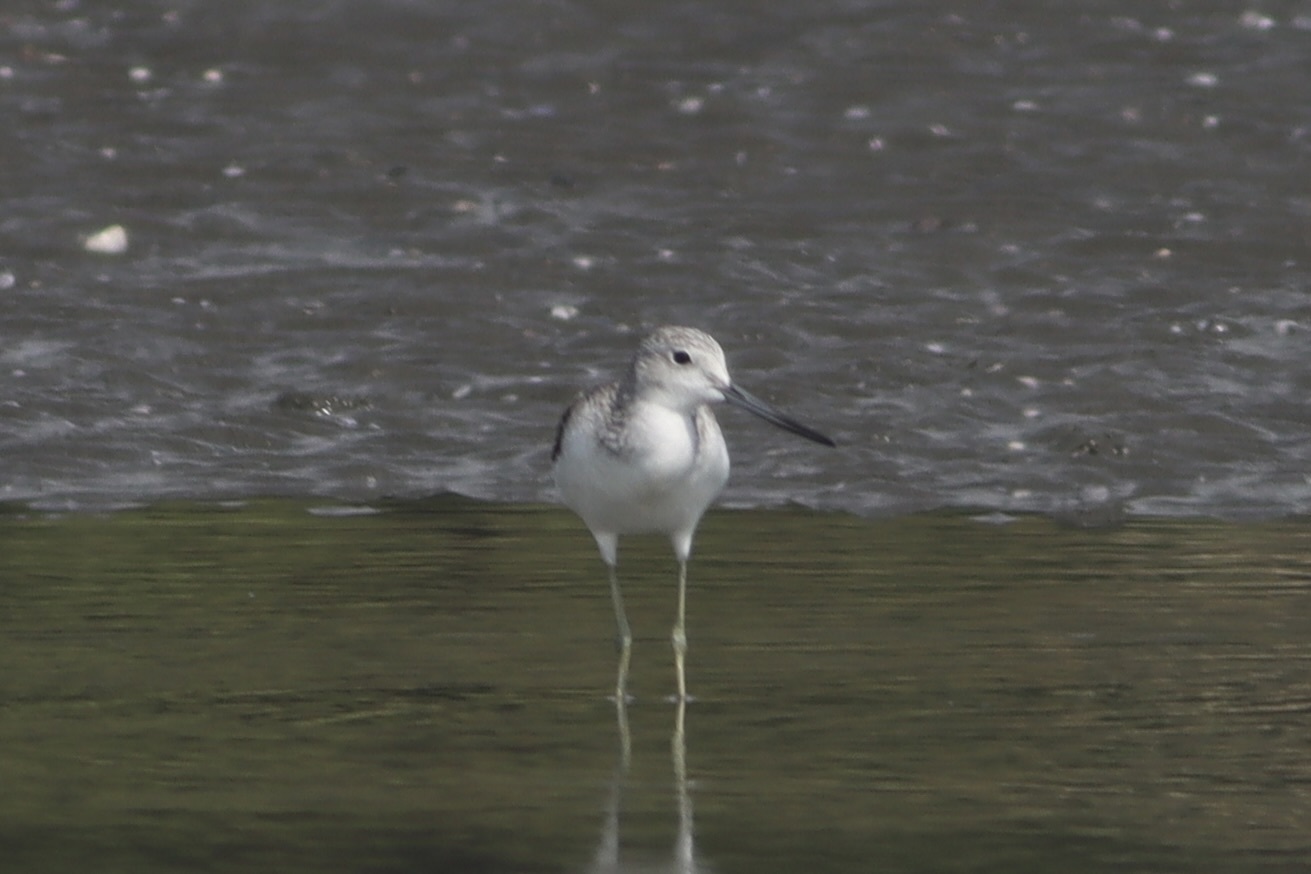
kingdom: Animalia
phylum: Chordata
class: Aves
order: Charadriiformes
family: Scolopacidae
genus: Tringa
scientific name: Tringa nebularia
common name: Common greenshank
